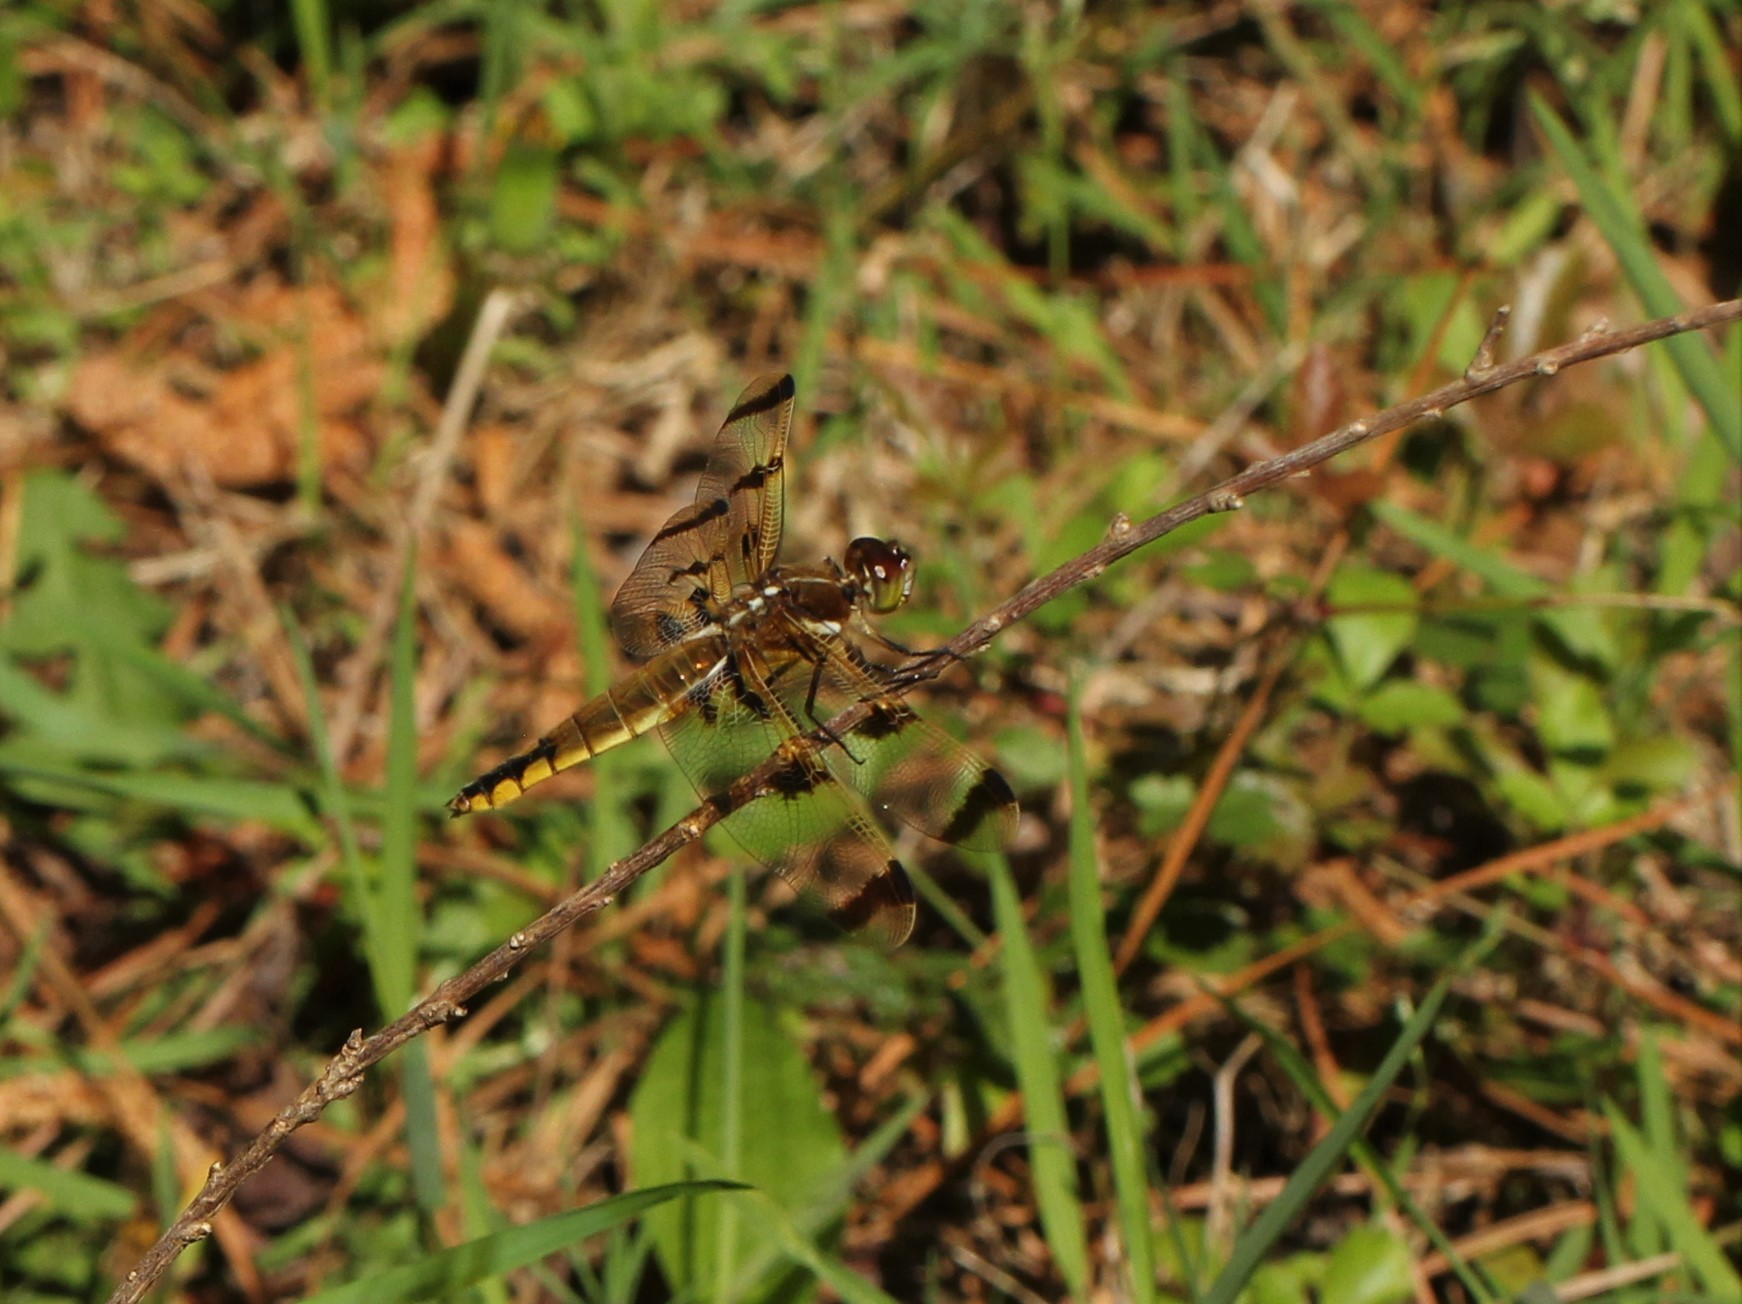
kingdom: Animalia
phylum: Arthropoda
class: Insecta
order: Odonata
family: Libellulidae
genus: Libellula
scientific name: Libellula semifasciata
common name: Painted skimmer
